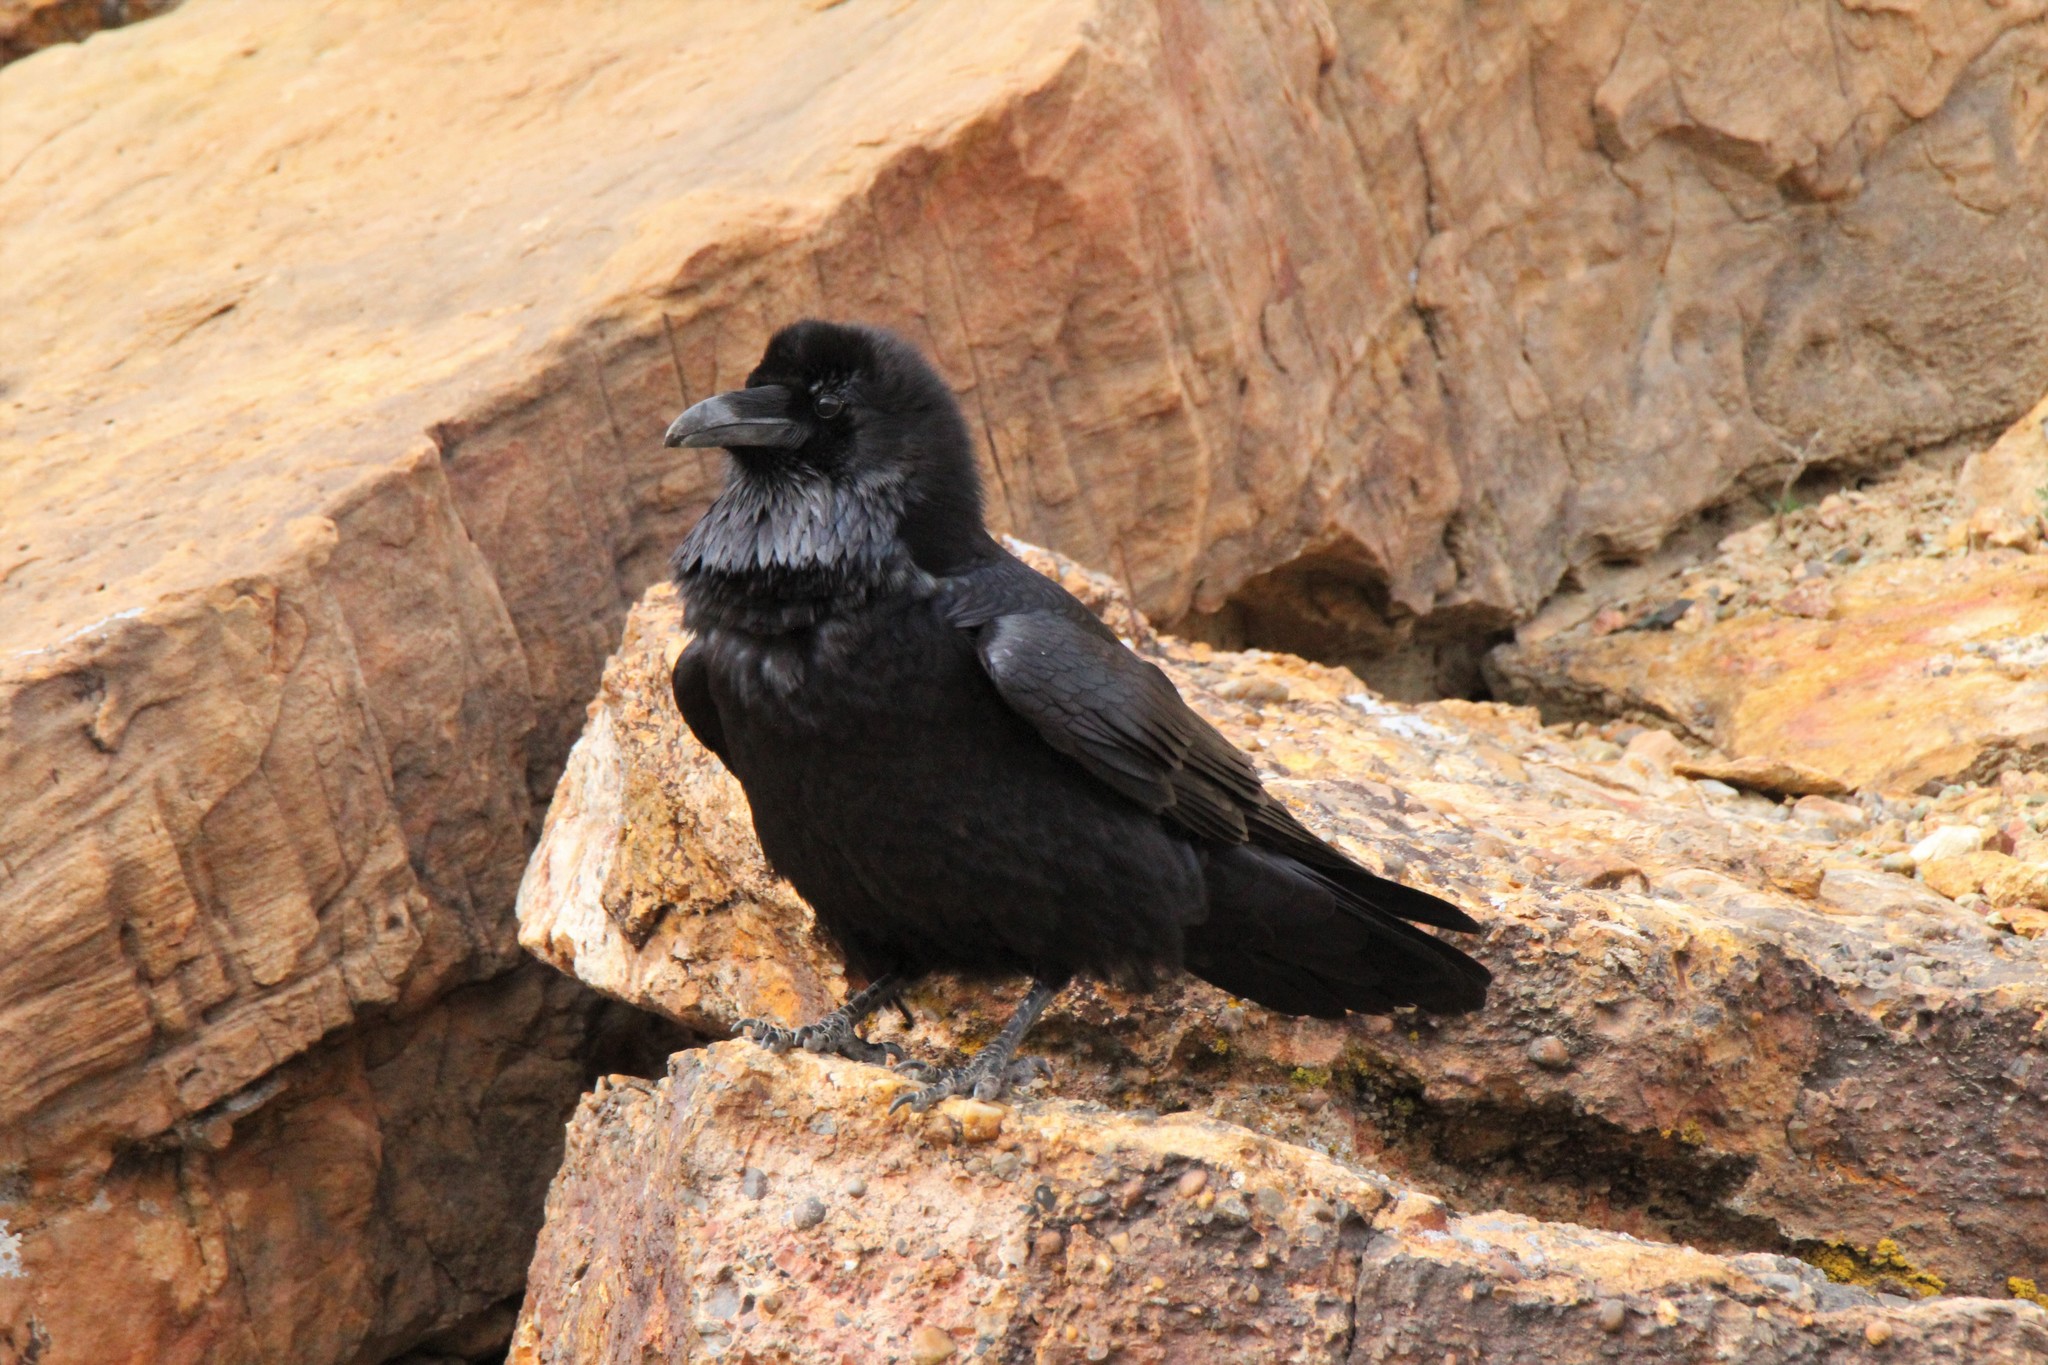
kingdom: Animalia
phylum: Chordata
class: Aves
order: Passeriformes
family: Corvidae
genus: Corvus
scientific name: Corvus corax
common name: Common raven
